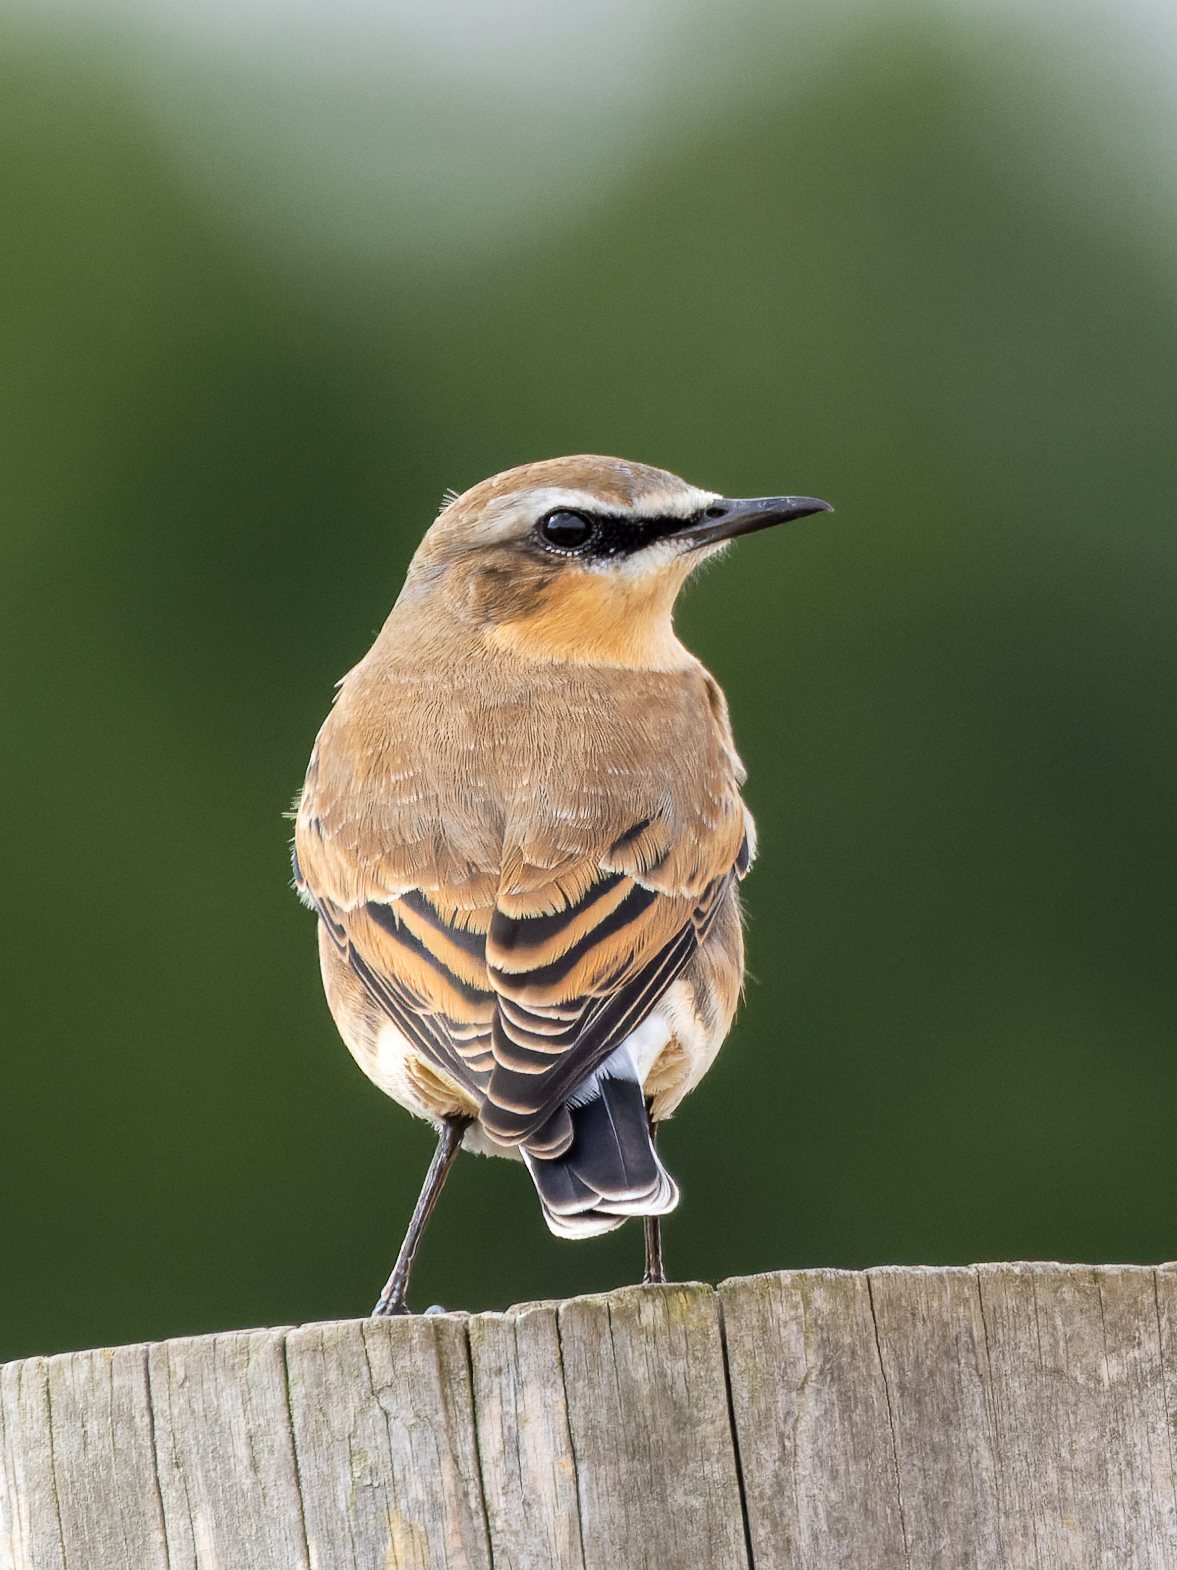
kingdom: Animalia
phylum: Chordata
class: Aves
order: Passeriformes
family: Muscicapidae
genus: Oenanthe
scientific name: Oenanthe oenanthe
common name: Northern wheatear
